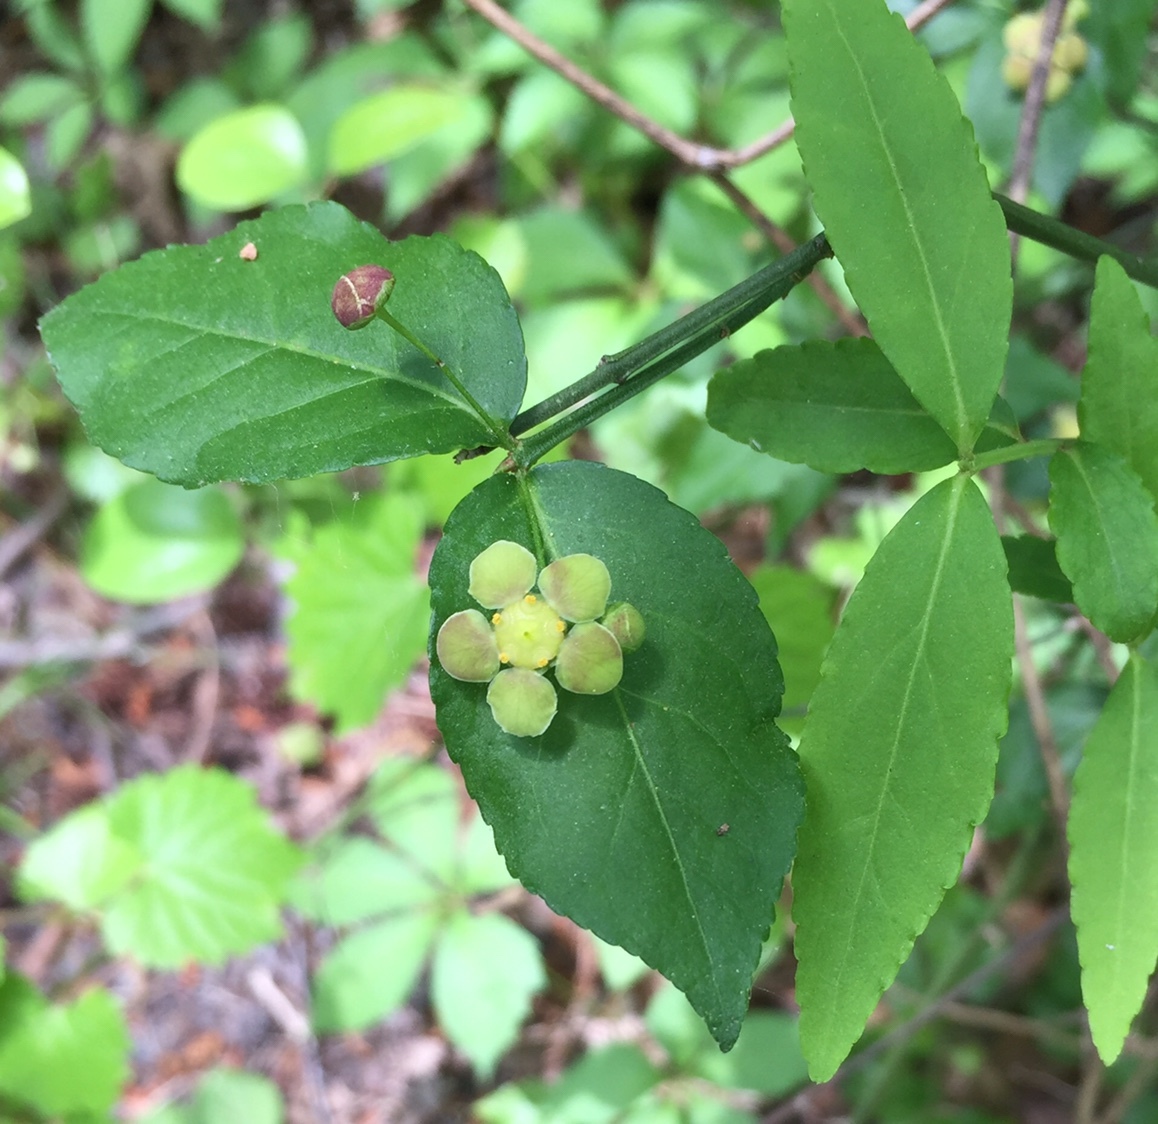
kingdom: Plantae
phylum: Tracheophyta
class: Magnoliopsida
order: Celastrales
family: Celastraceae
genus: Euonymus
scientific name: Euonymus americanus
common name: Bursting-heart
